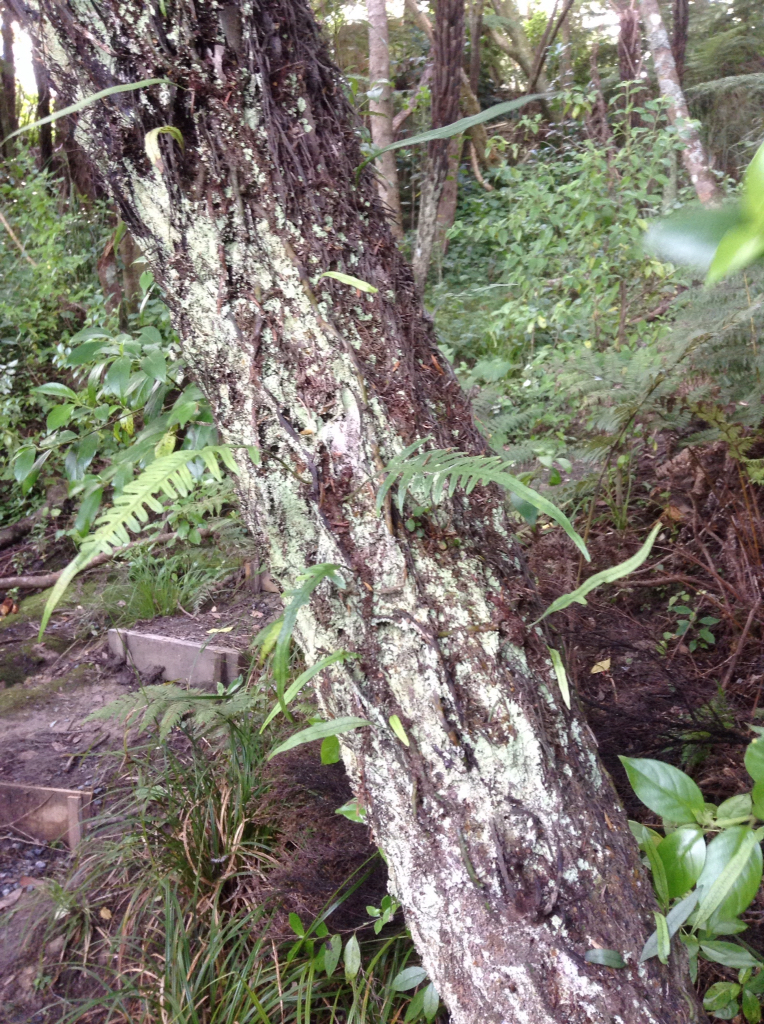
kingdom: Plantae
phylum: Tracheophyta
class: Polypodiopsida
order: Polypodiales
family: Polypodiaceae
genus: Lecanopteris
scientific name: Lecanopteris scandens
